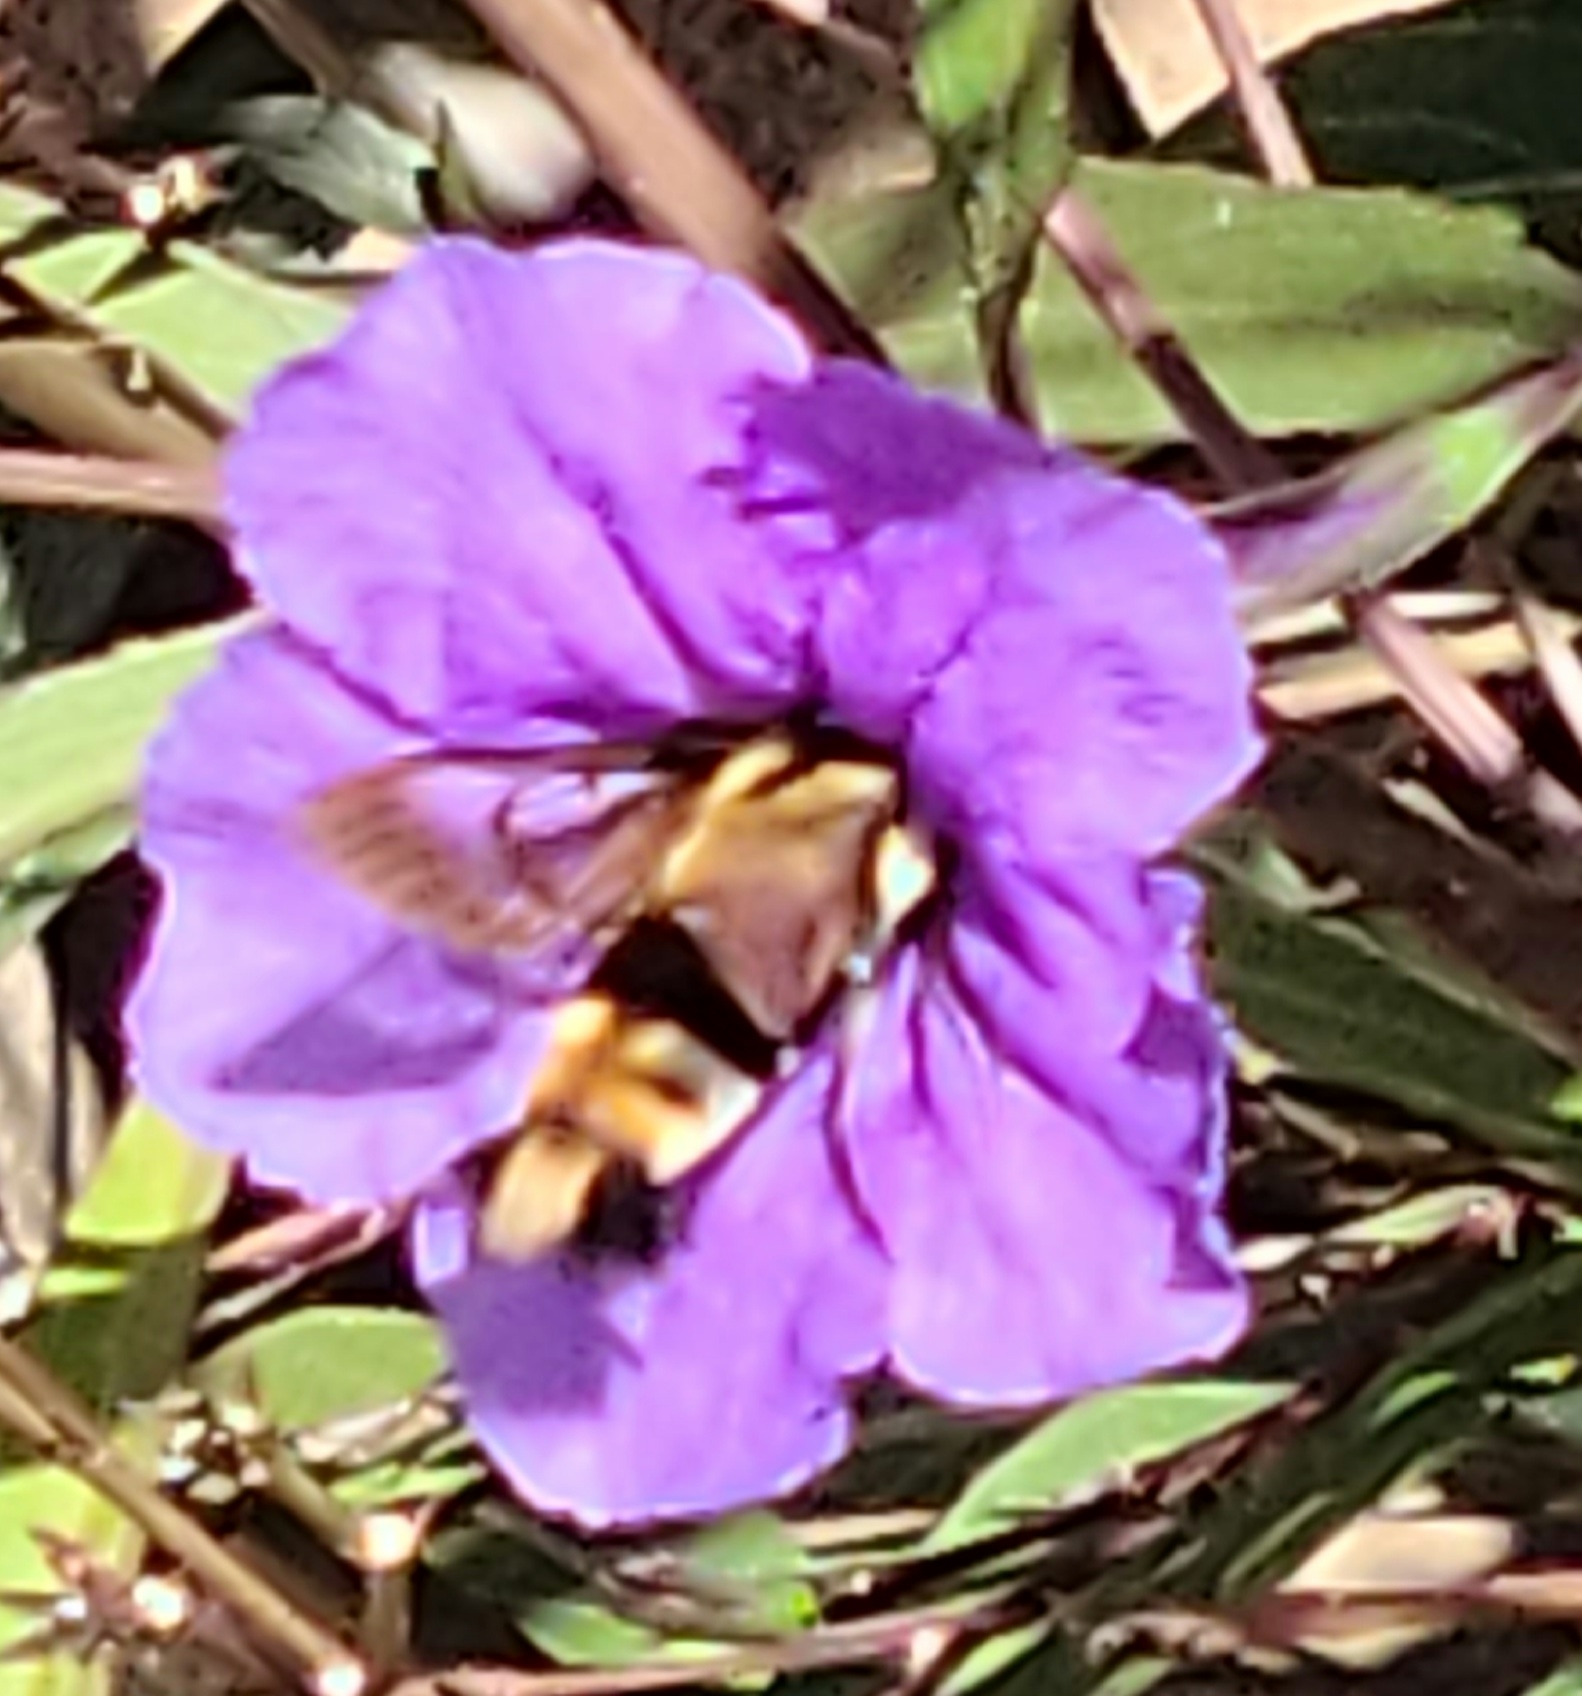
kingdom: Animalia
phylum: Arthropoda
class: Insecta
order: Lepidoptera
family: Sphingidae
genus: Hemaris
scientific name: Hemaris diffinis
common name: Bumblebee moth
